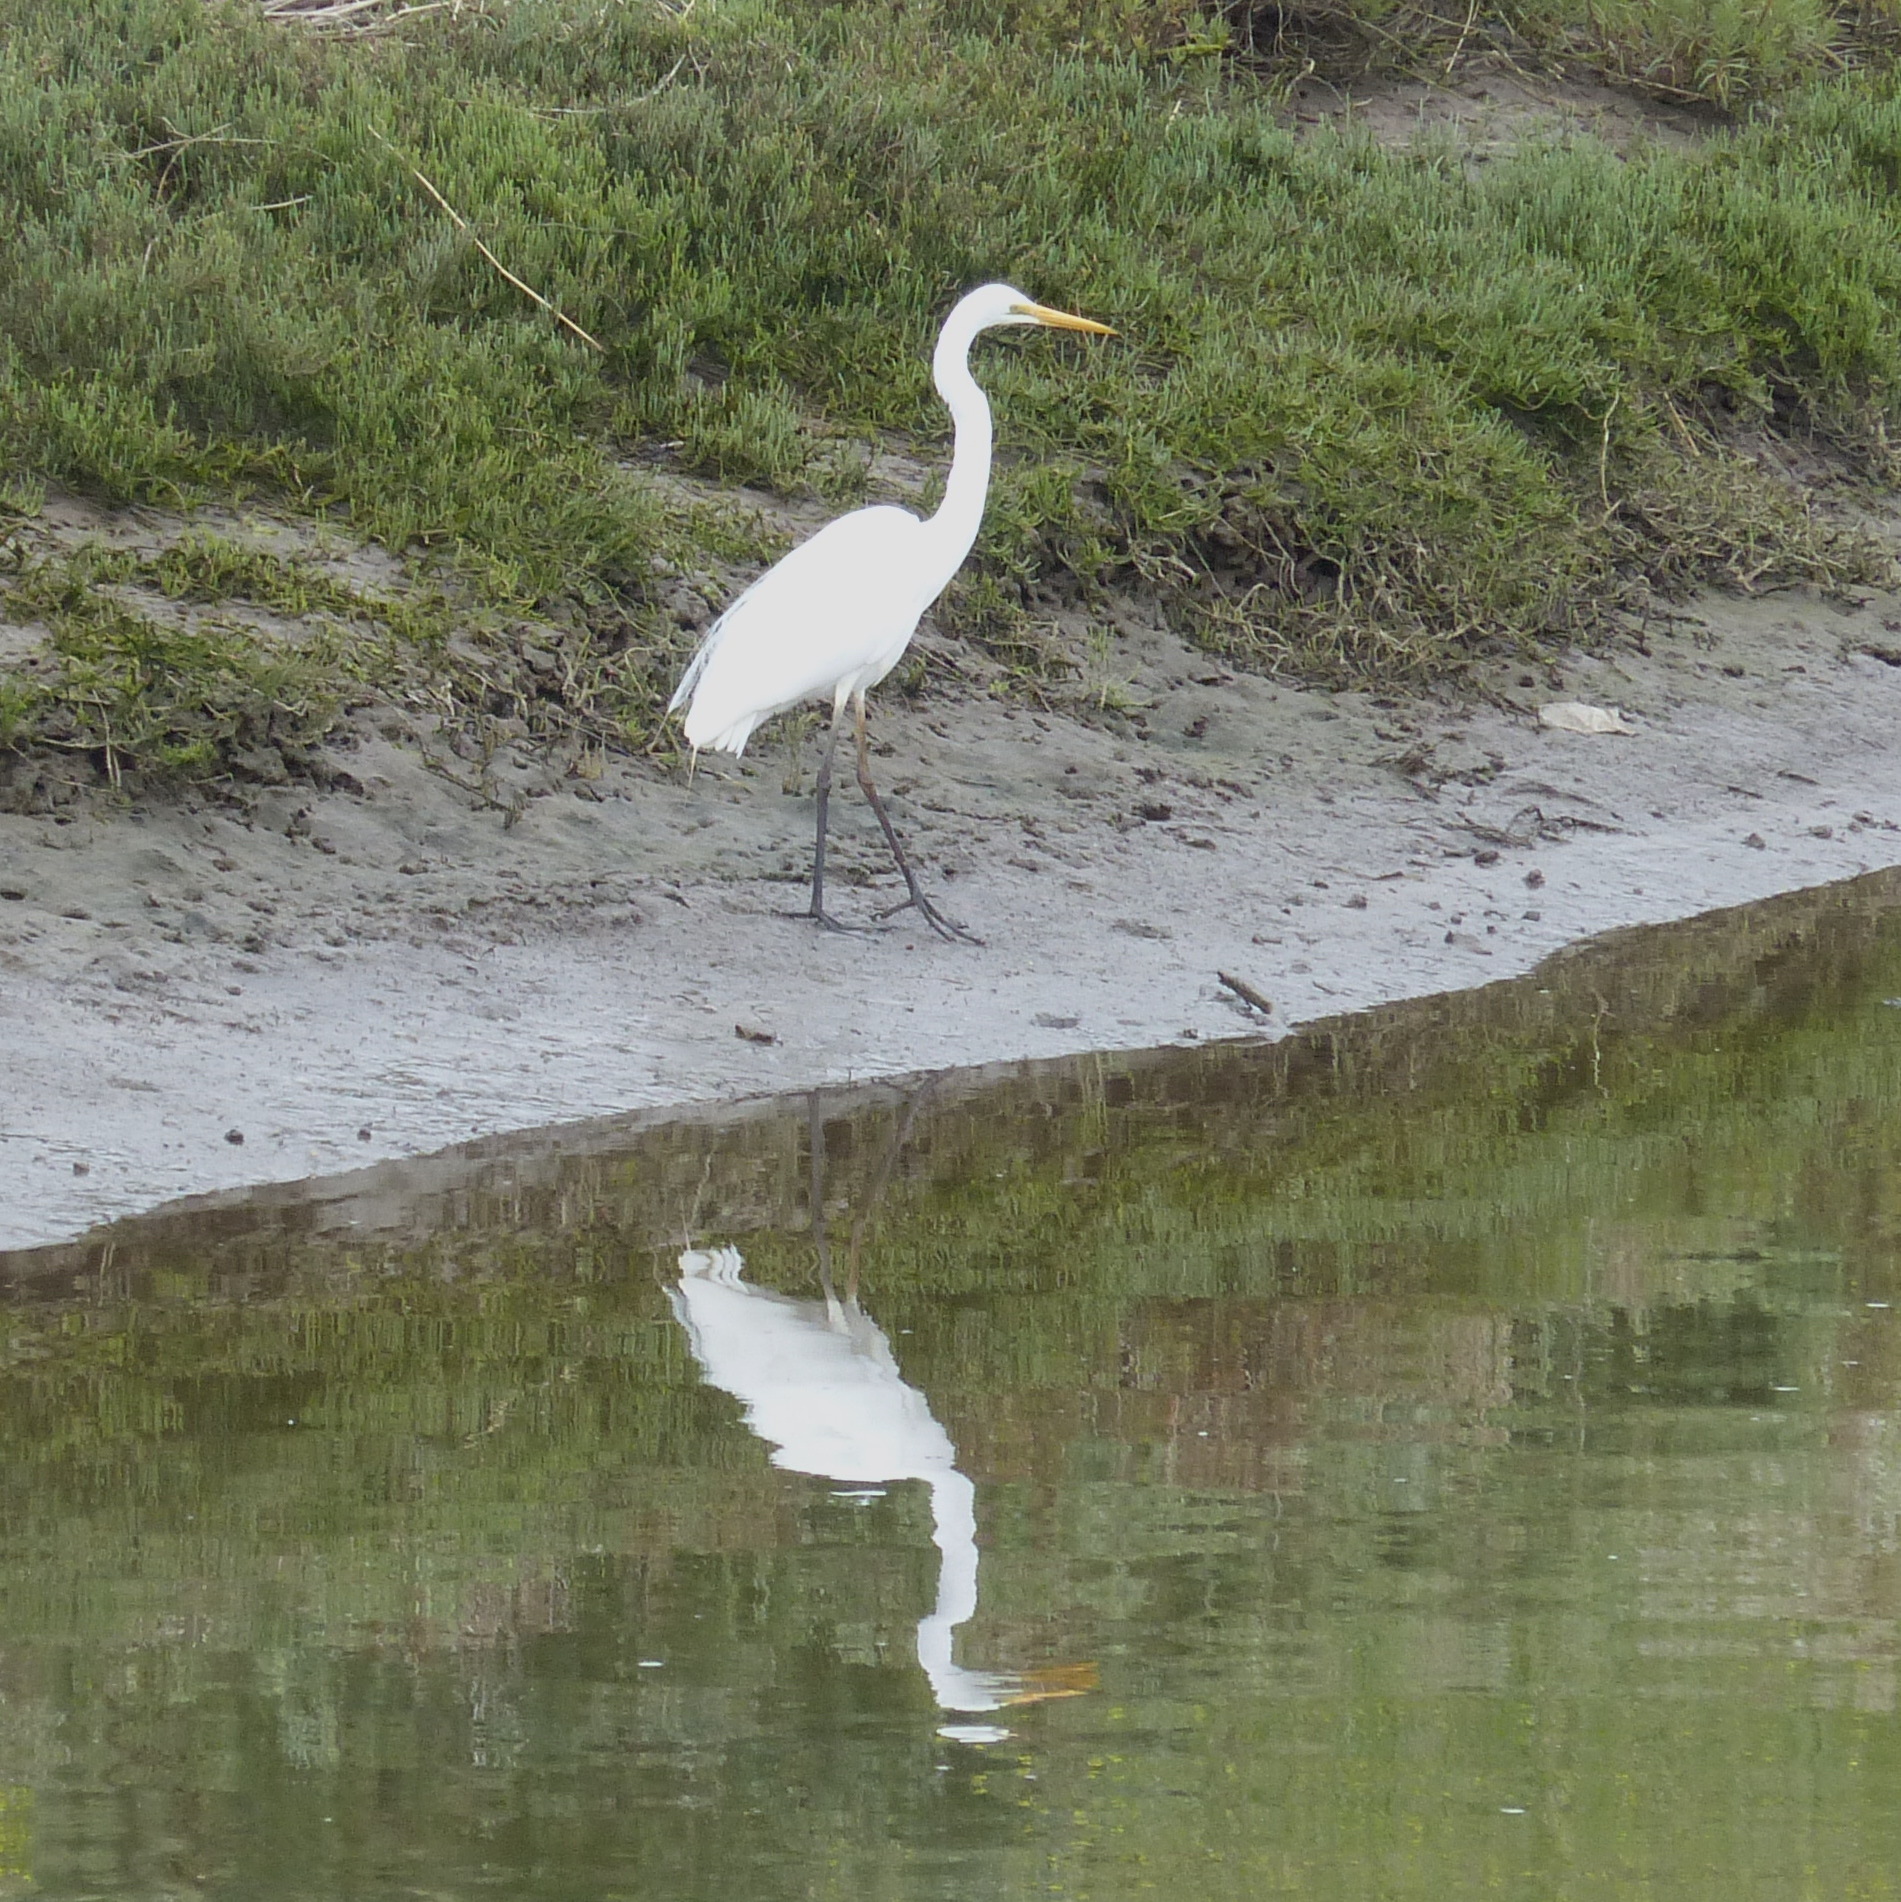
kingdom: Animalia
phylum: Chordata
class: Aves
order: Pelecaniformes
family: Ardeidae
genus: Ardea
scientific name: Ardea alba
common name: Great egret
